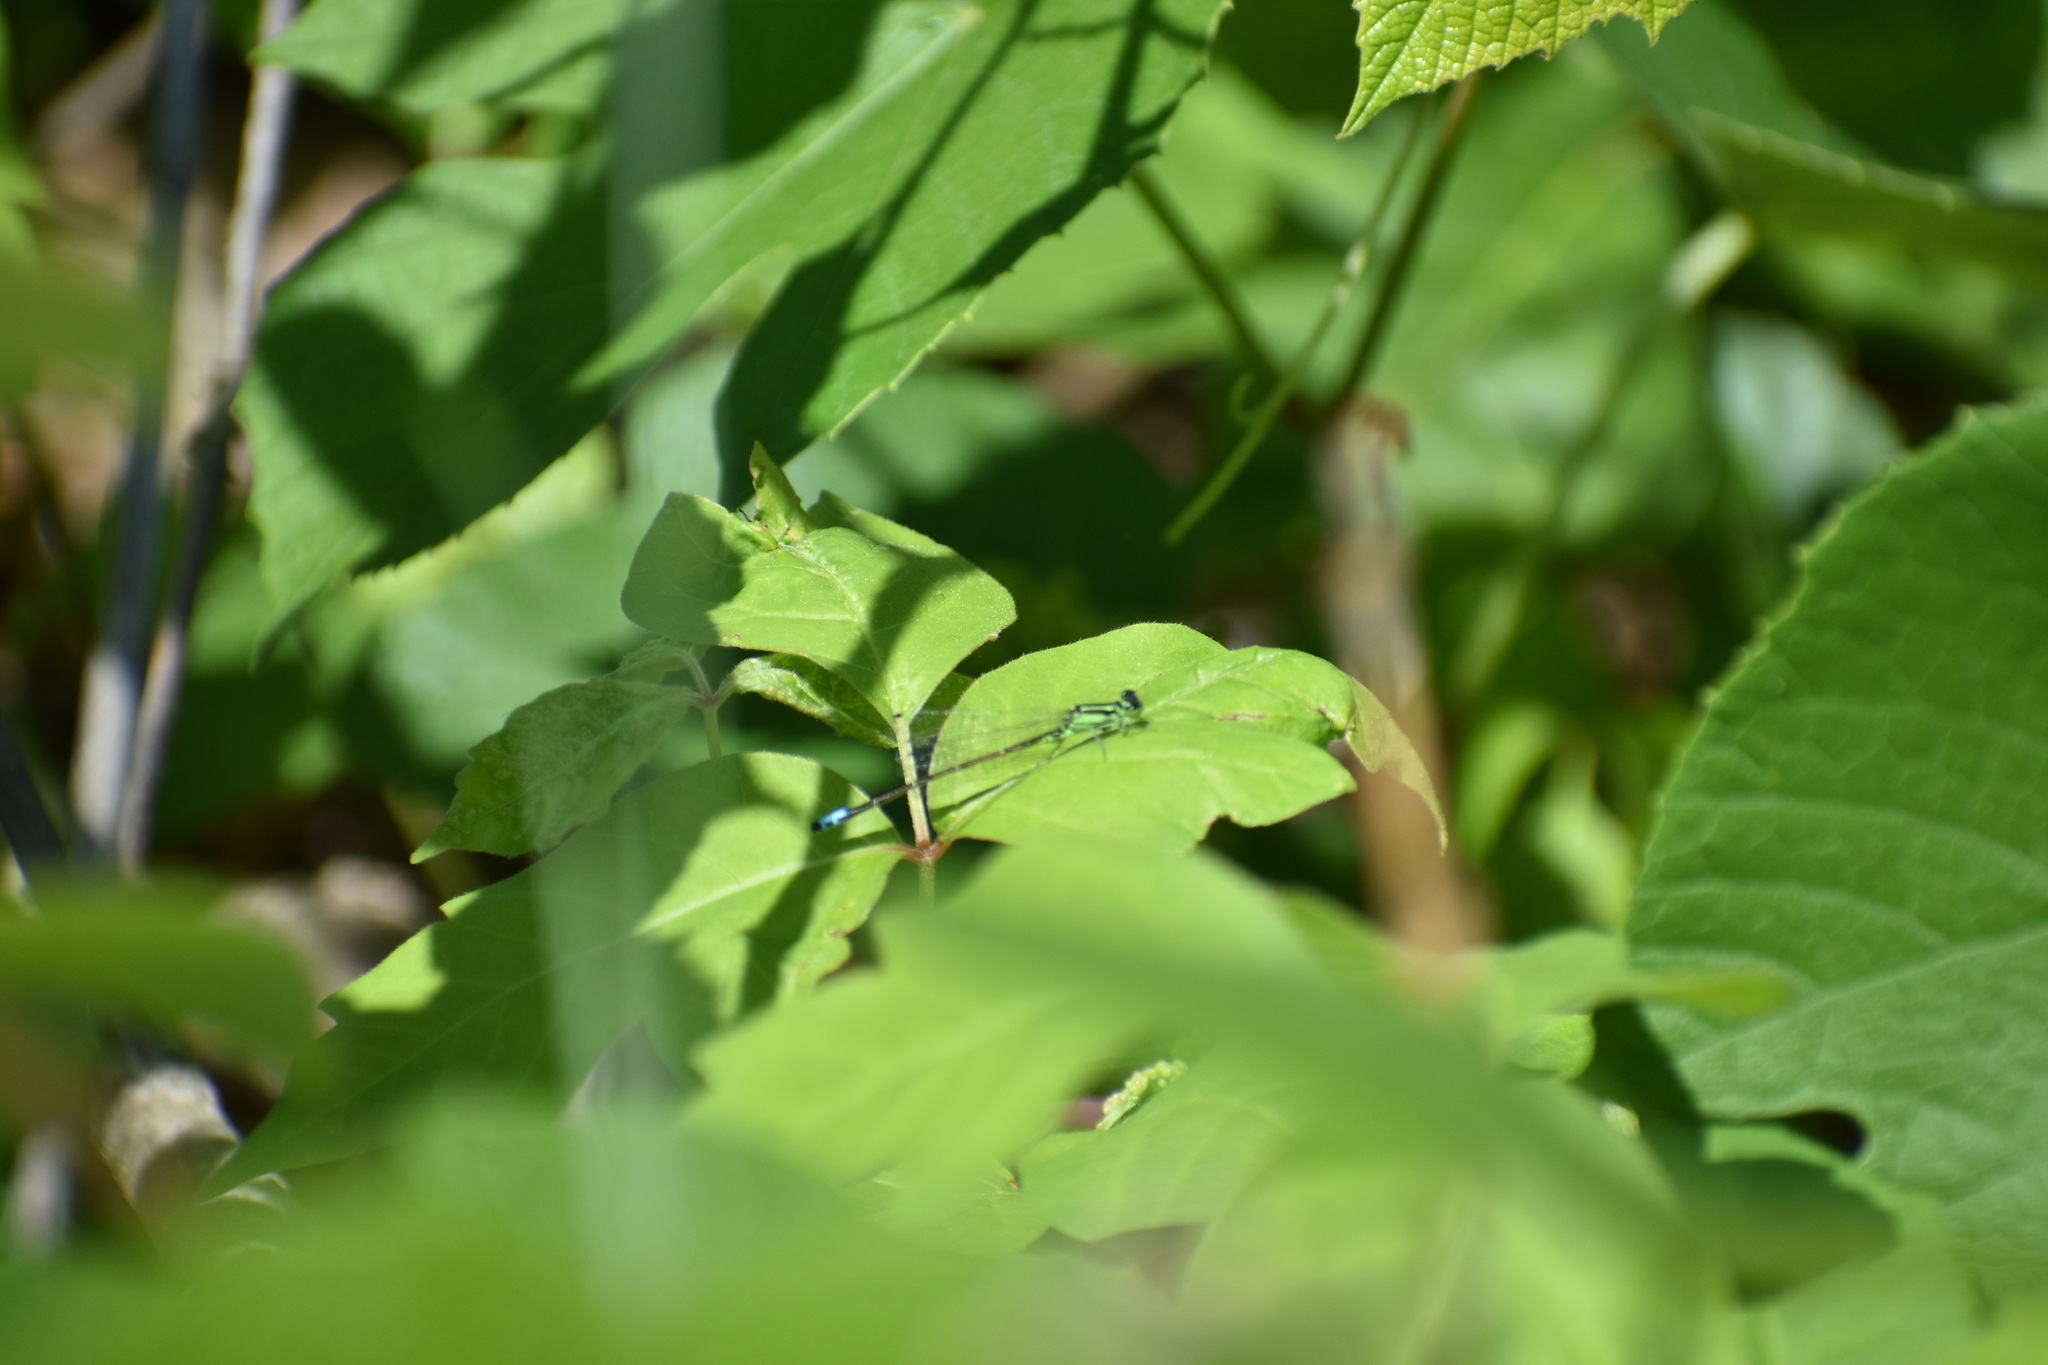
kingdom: Animalia
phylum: Arthropoda
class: Insecta
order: Odonata
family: Coenagrionidae
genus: Ischnura
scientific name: Ischnura verticalis
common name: Eastern forktail
